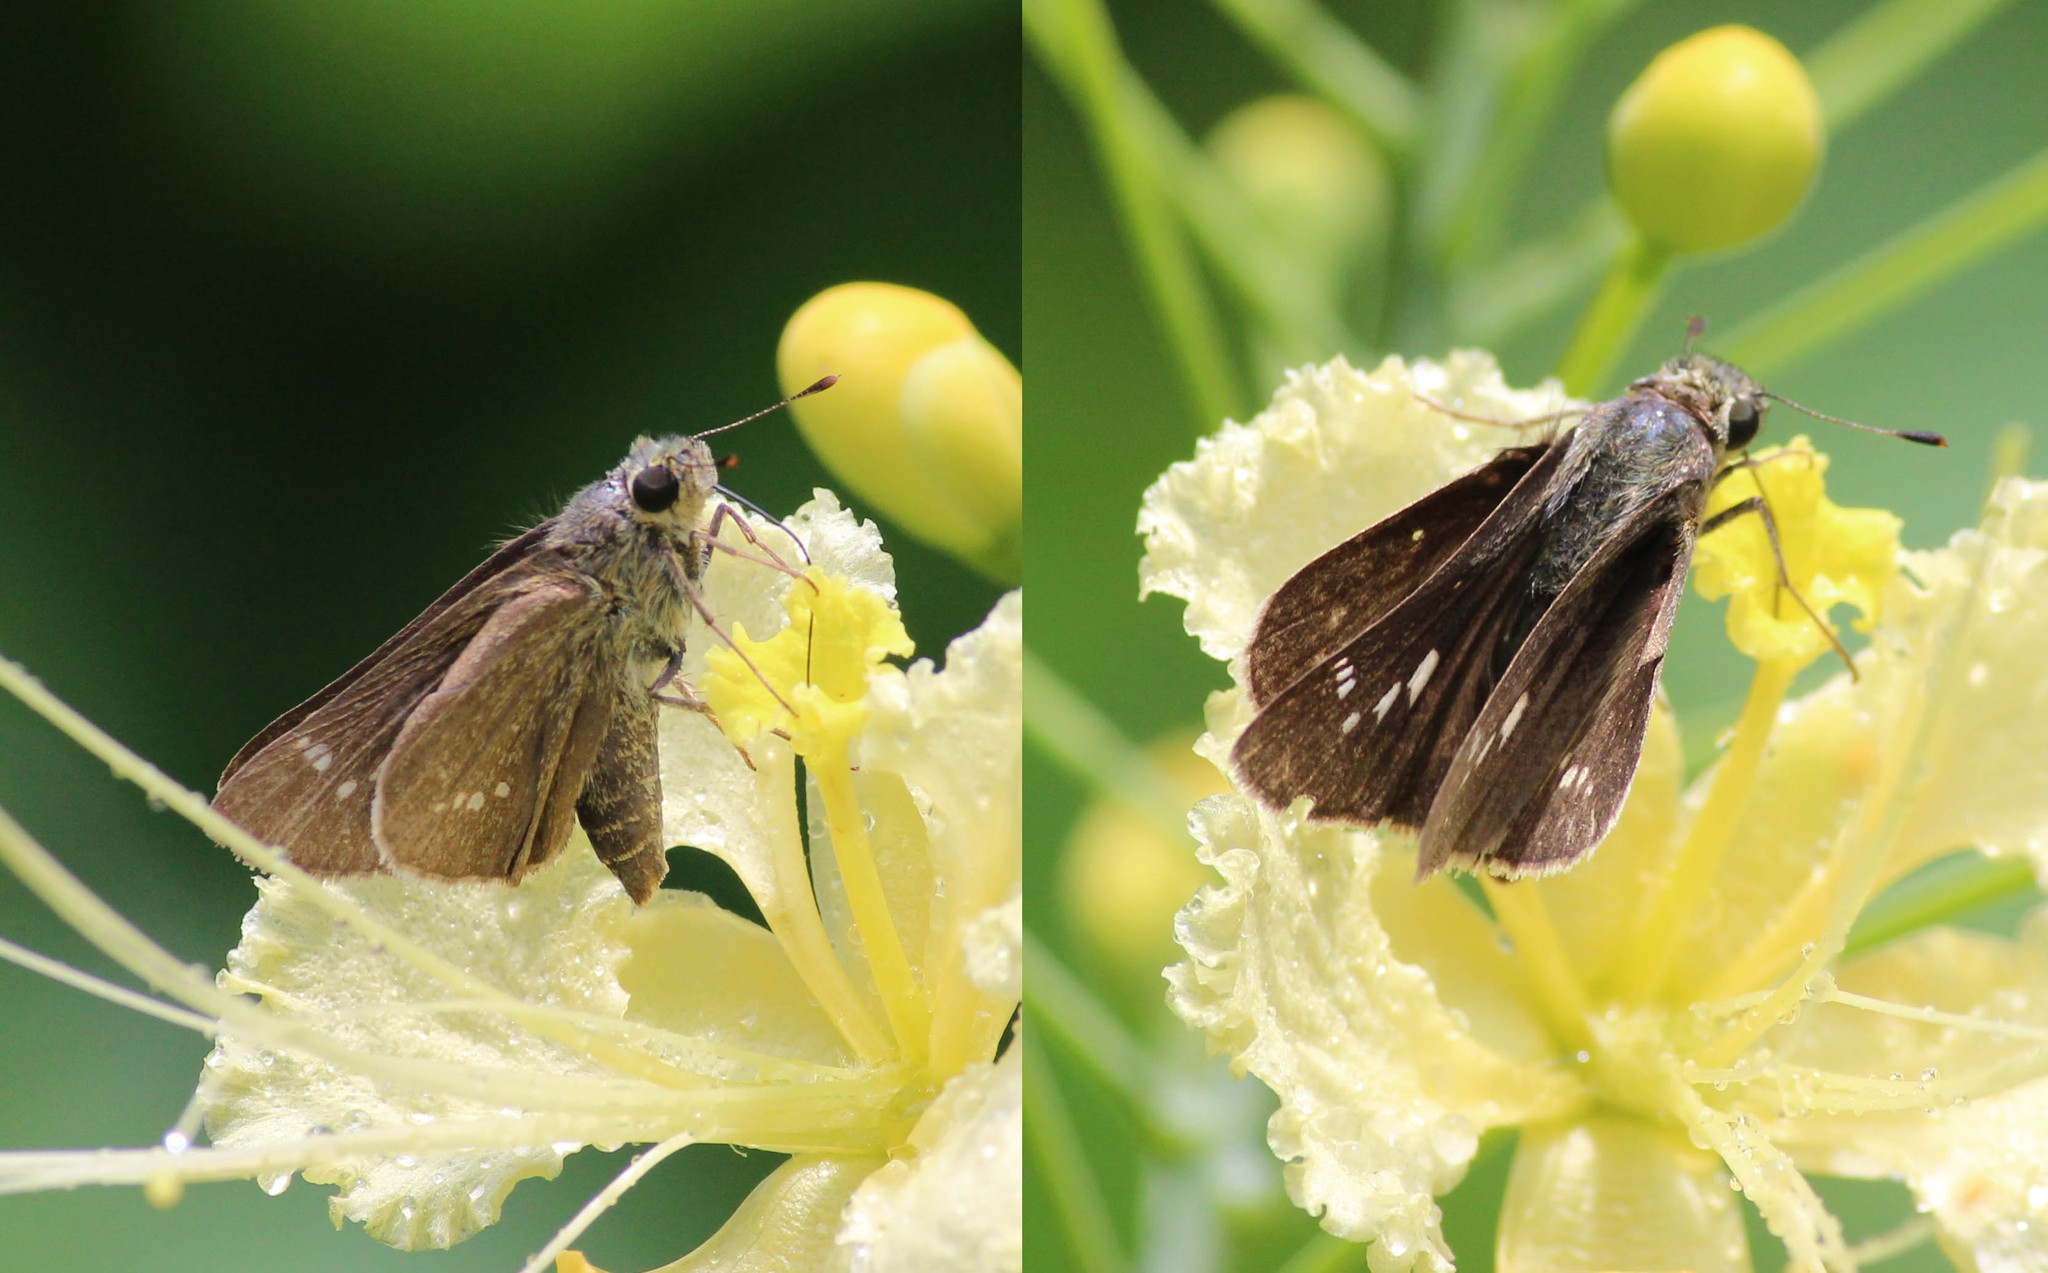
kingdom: Animalia
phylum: Arthropoda
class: Insecta
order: Lepidoptera
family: Hesperiidae
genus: Parnara
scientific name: Parnara naso
